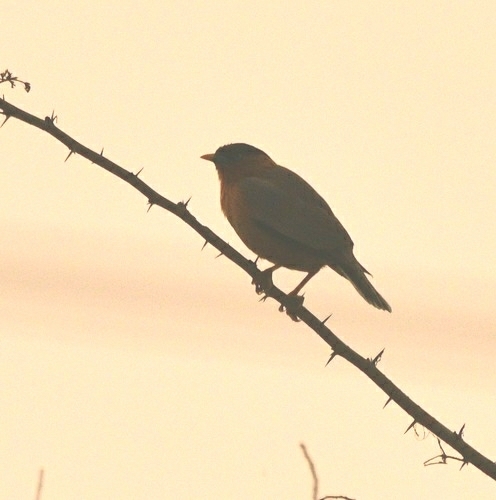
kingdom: Animalia
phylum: Chordata
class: Aves
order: Passeriformes
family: Sturnidae
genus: Sturnia
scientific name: Sturnia pagodarum
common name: Brahminy starling
